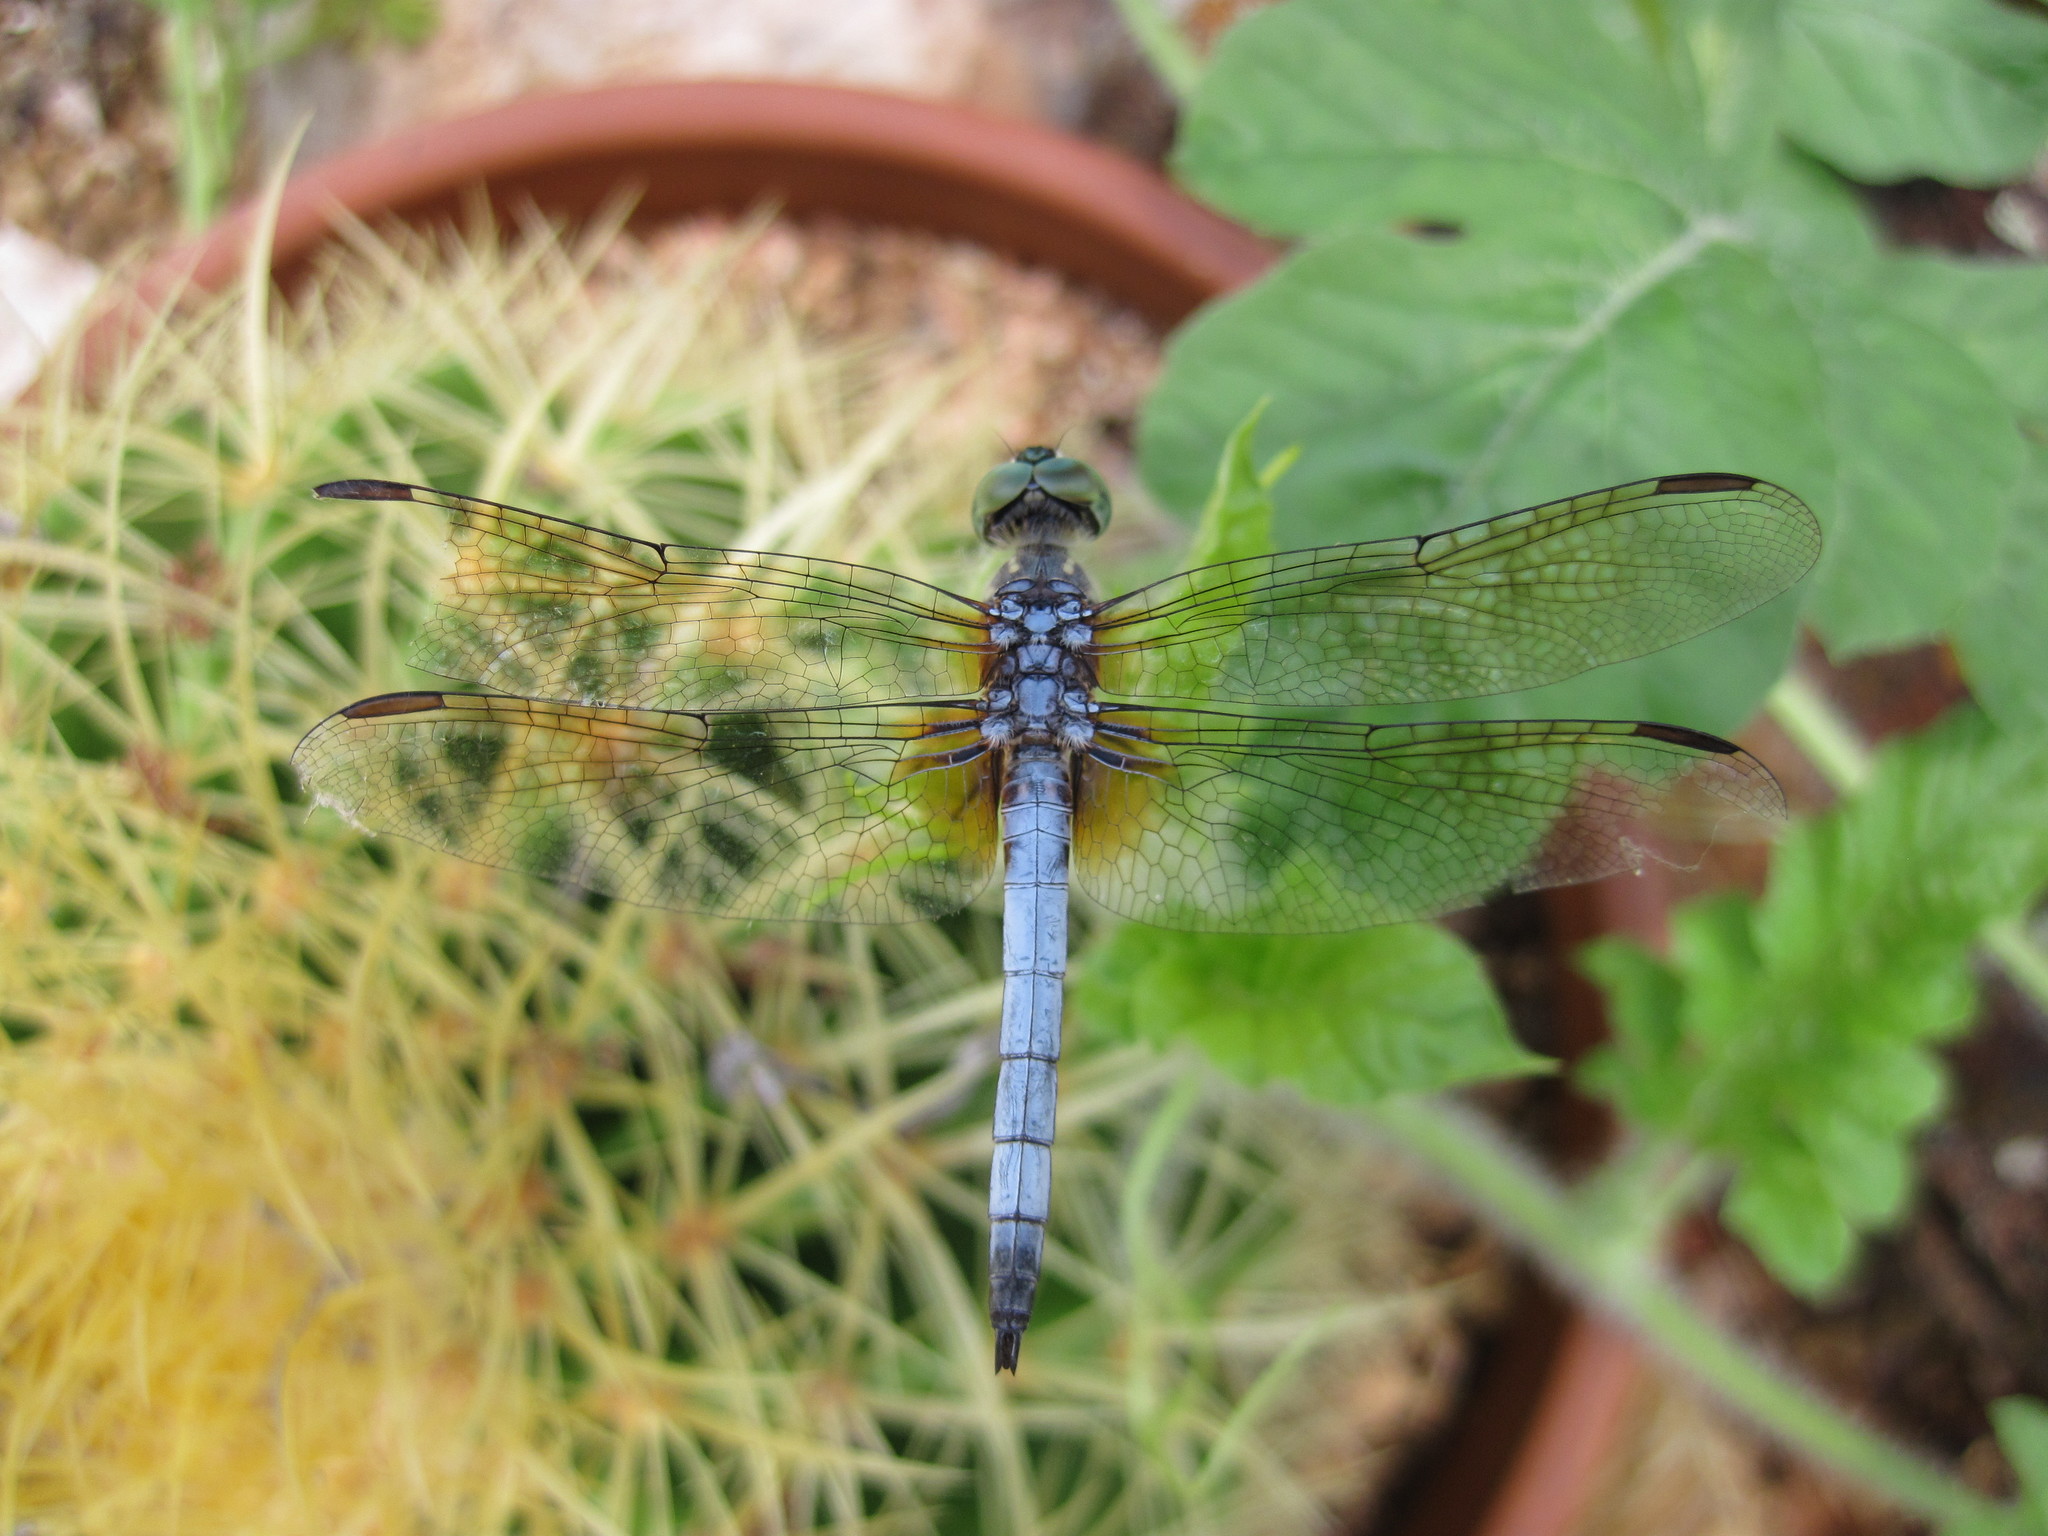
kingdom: Animalia
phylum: Arthropoda
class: Insecta
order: Odonata
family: Libellulidae
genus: Pachydiplax
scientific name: Pachydiplax longipennis
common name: Blue dasher
